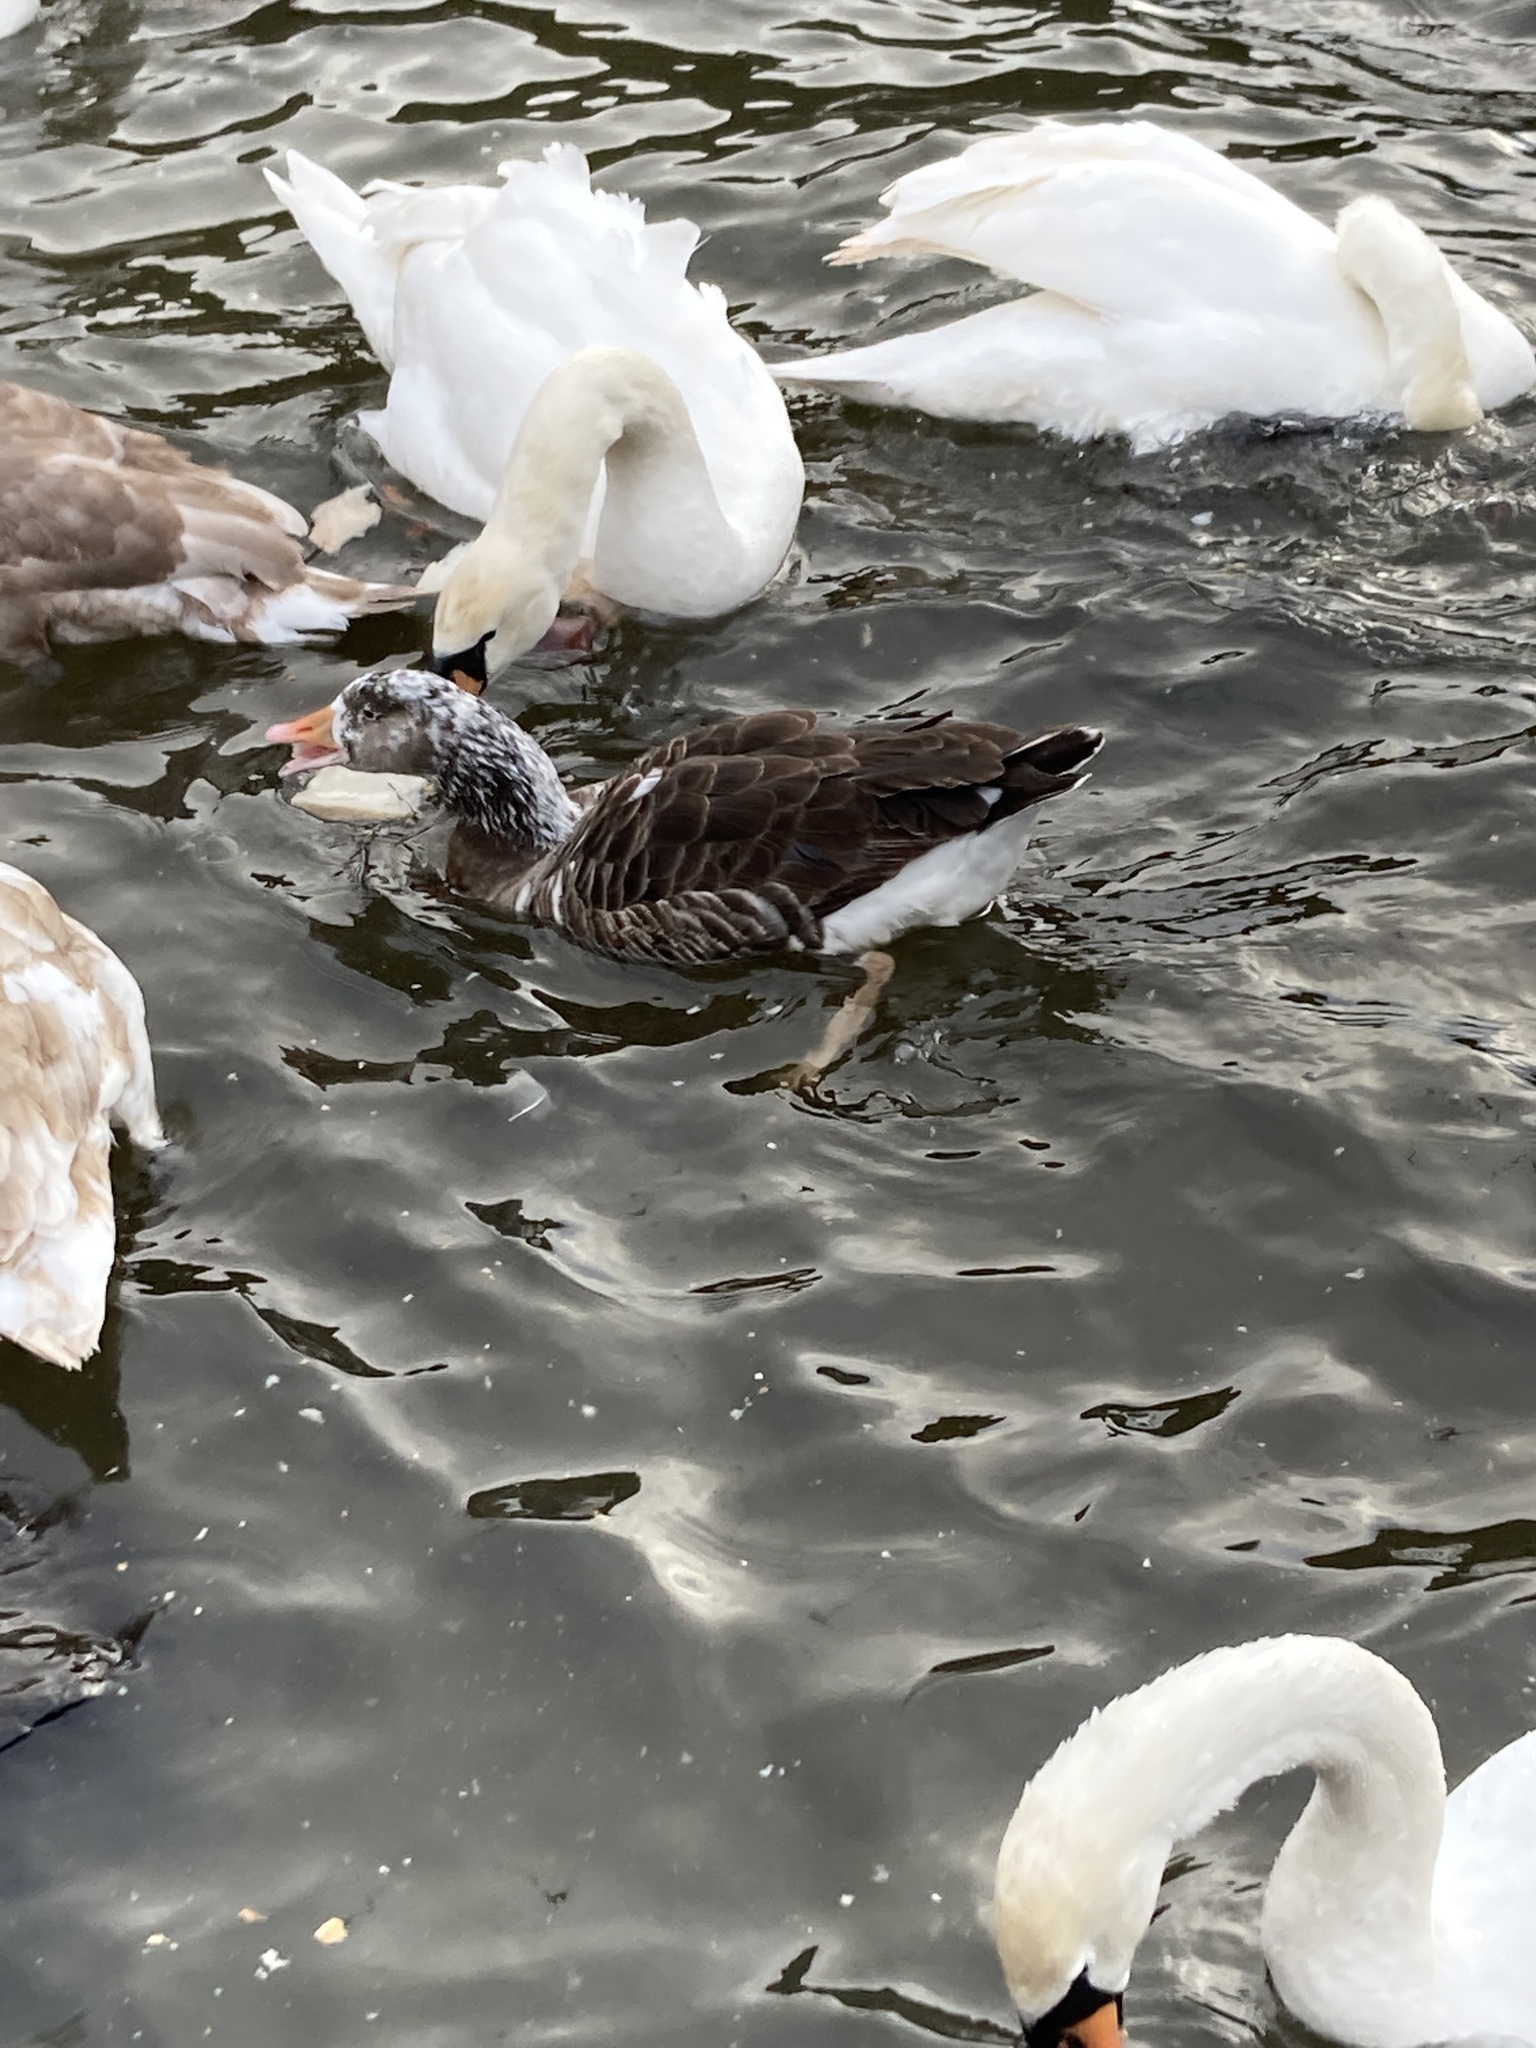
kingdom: Animalia
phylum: Chordata
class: Aves
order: Anseriformes
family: Anatidae
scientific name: Anatidae
